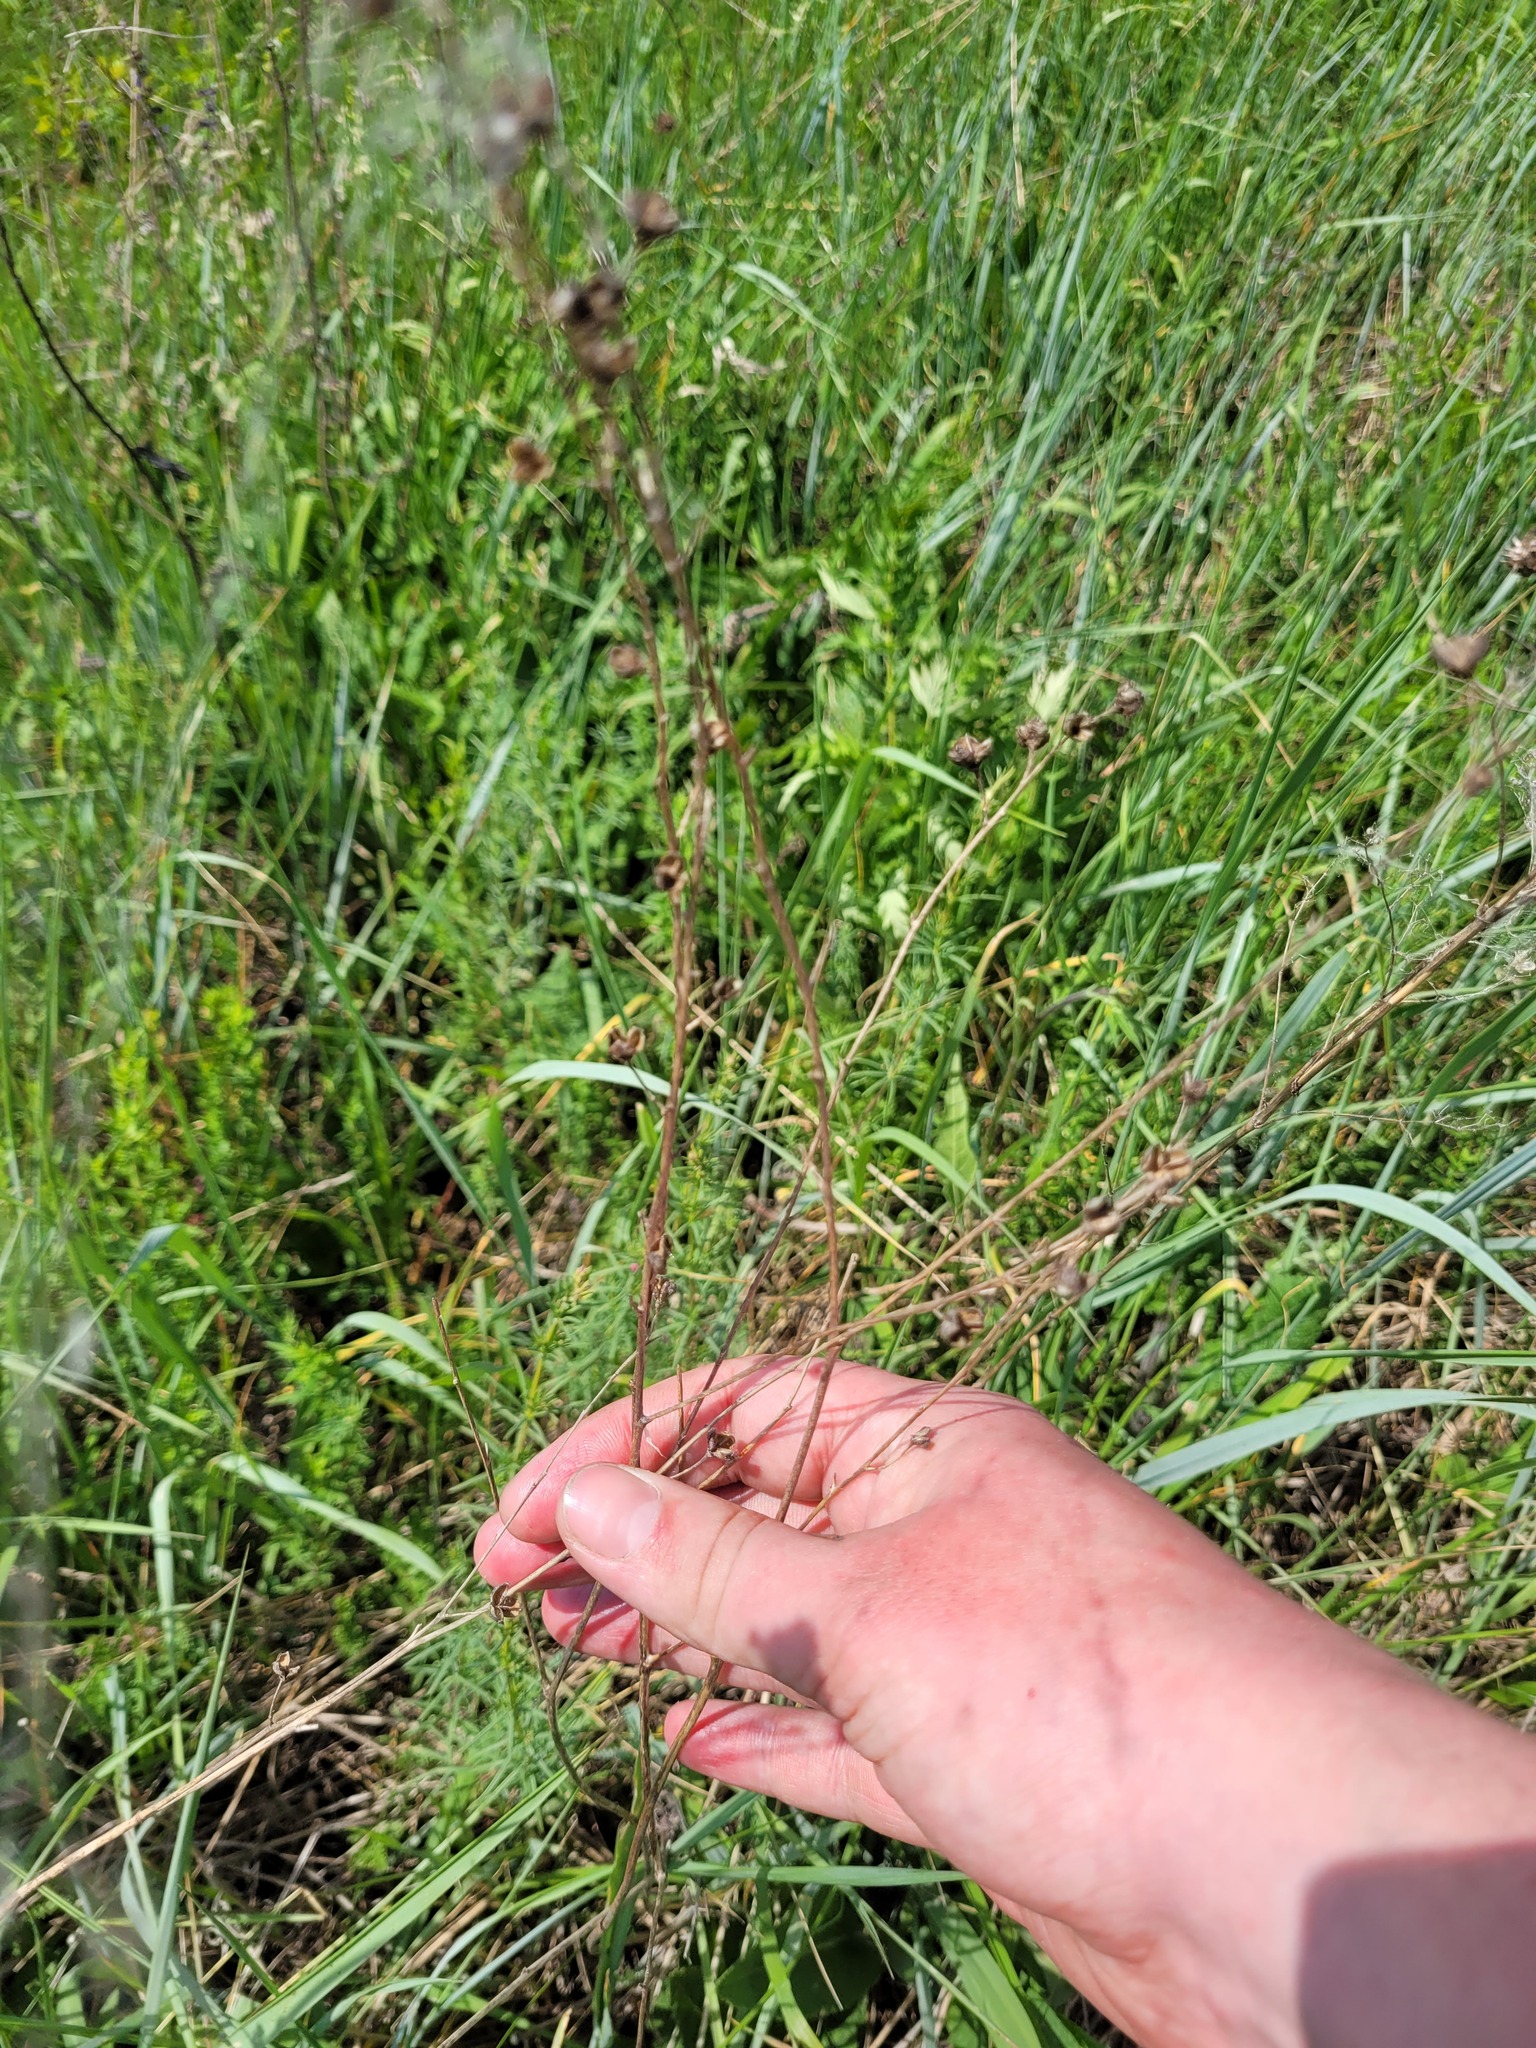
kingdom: Plantae
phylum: Tracheophyta
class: Liliopsida
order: Asparagales
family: Asparagaceae
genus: Anthericum
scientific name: Anthericum ramosum
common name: Branched st. bernard's-lily
